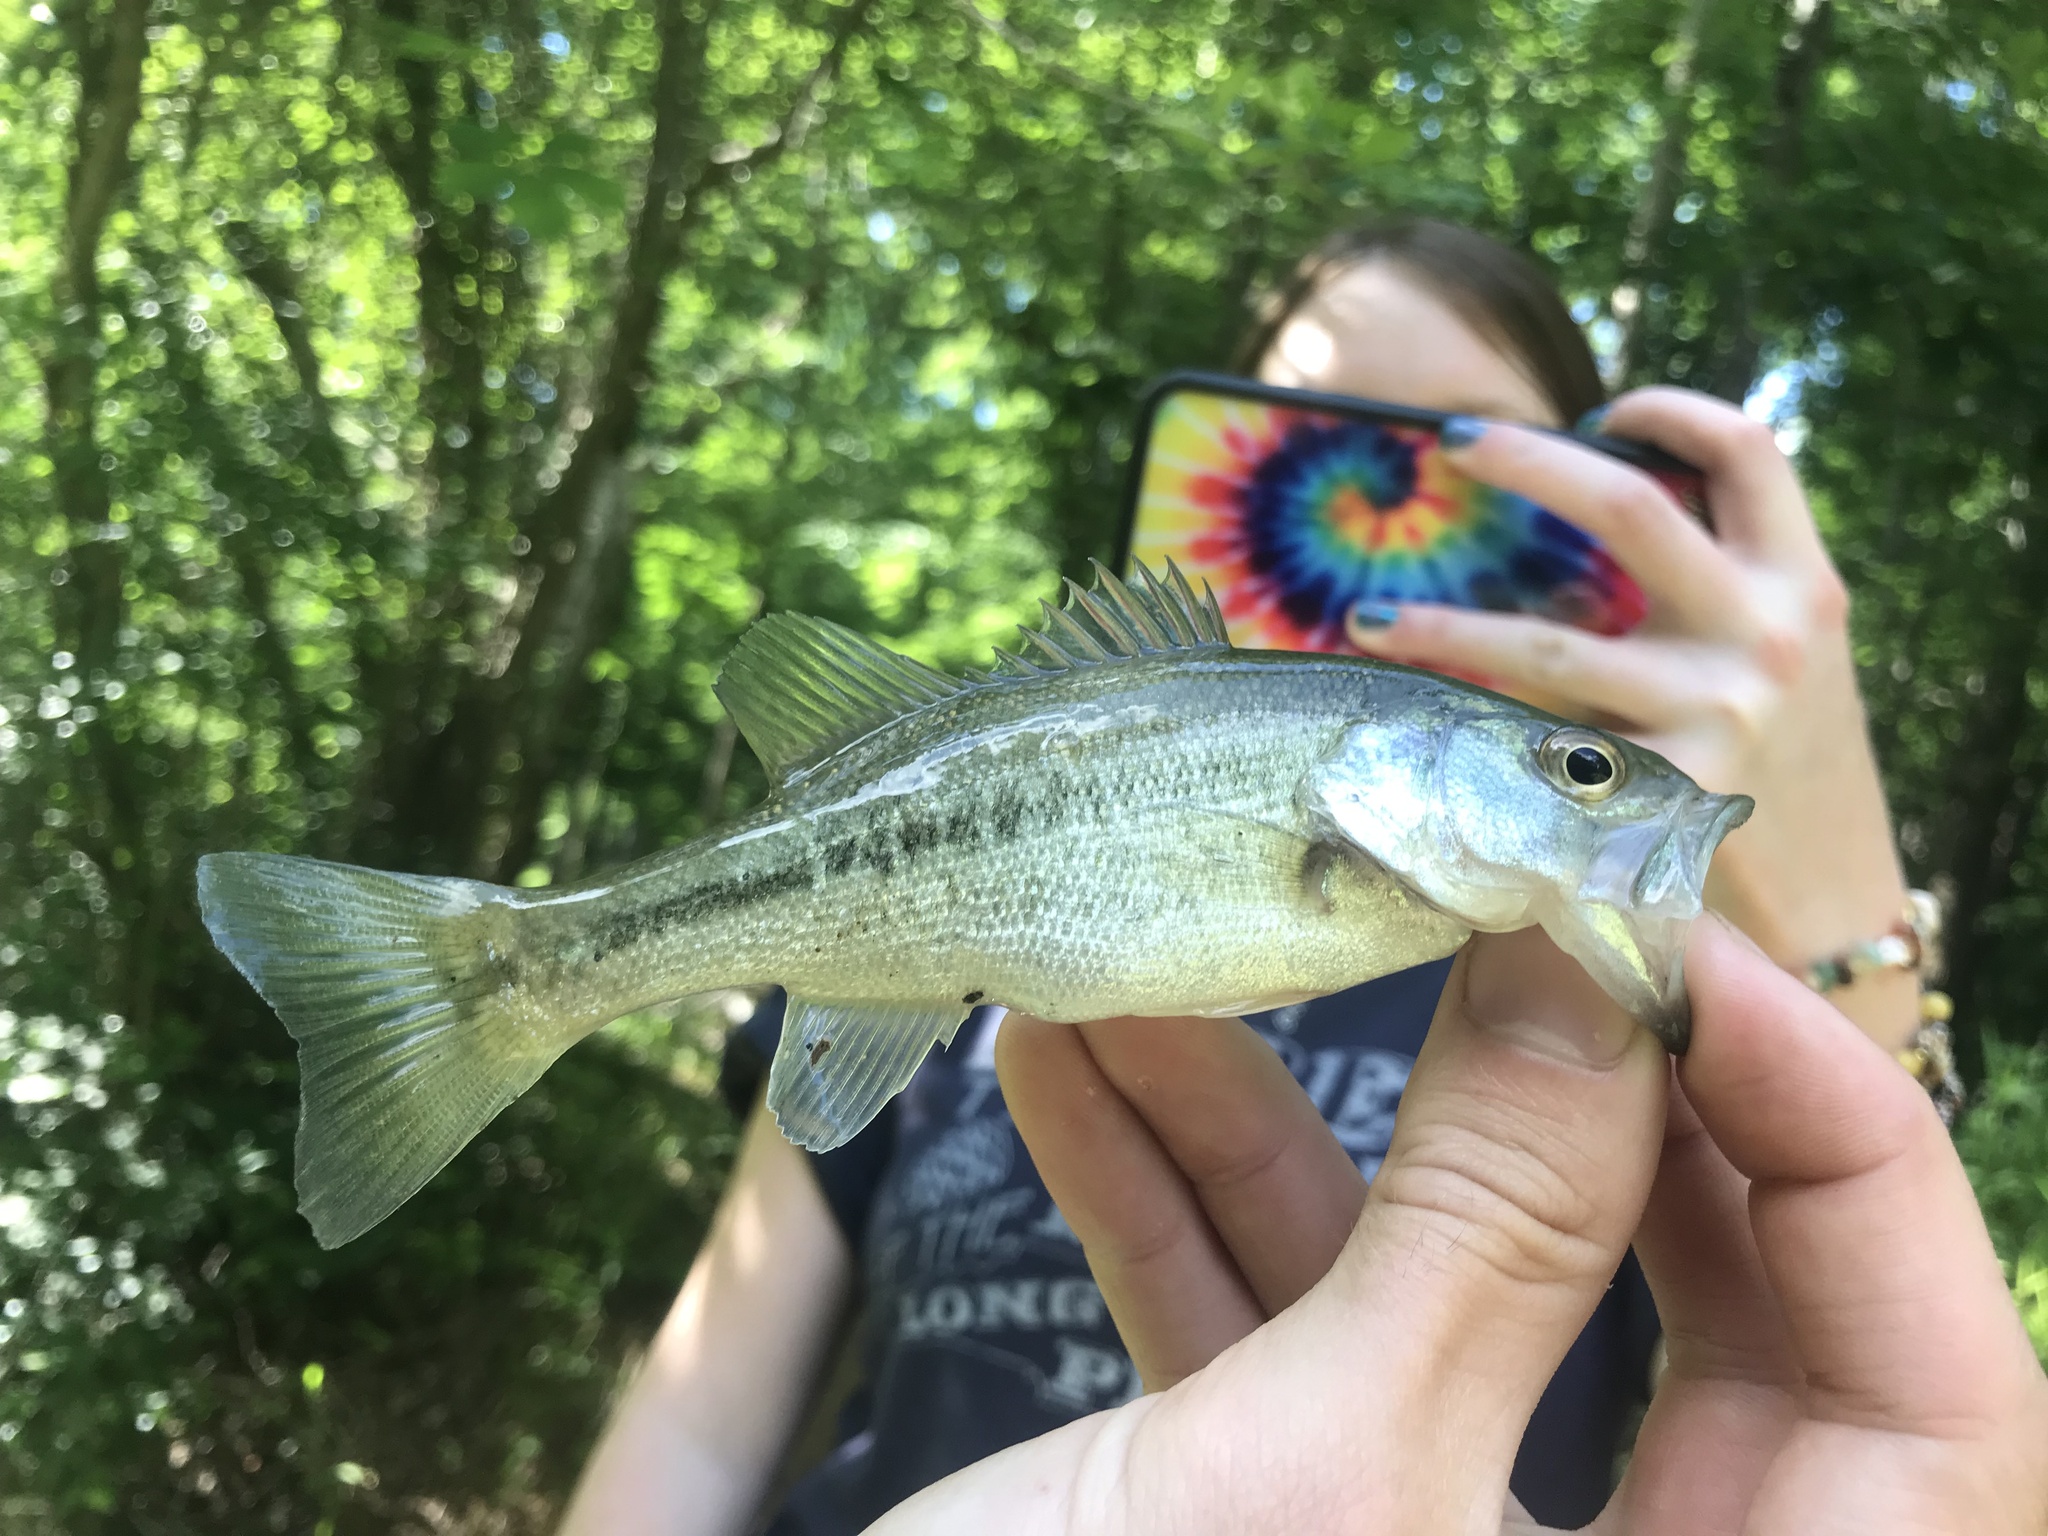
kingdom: Animalia
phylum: Chordata
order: Perciformes
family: Centrarchidae
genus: Micropterus
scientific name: Micropterus salmoides
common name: Largemouth bass
